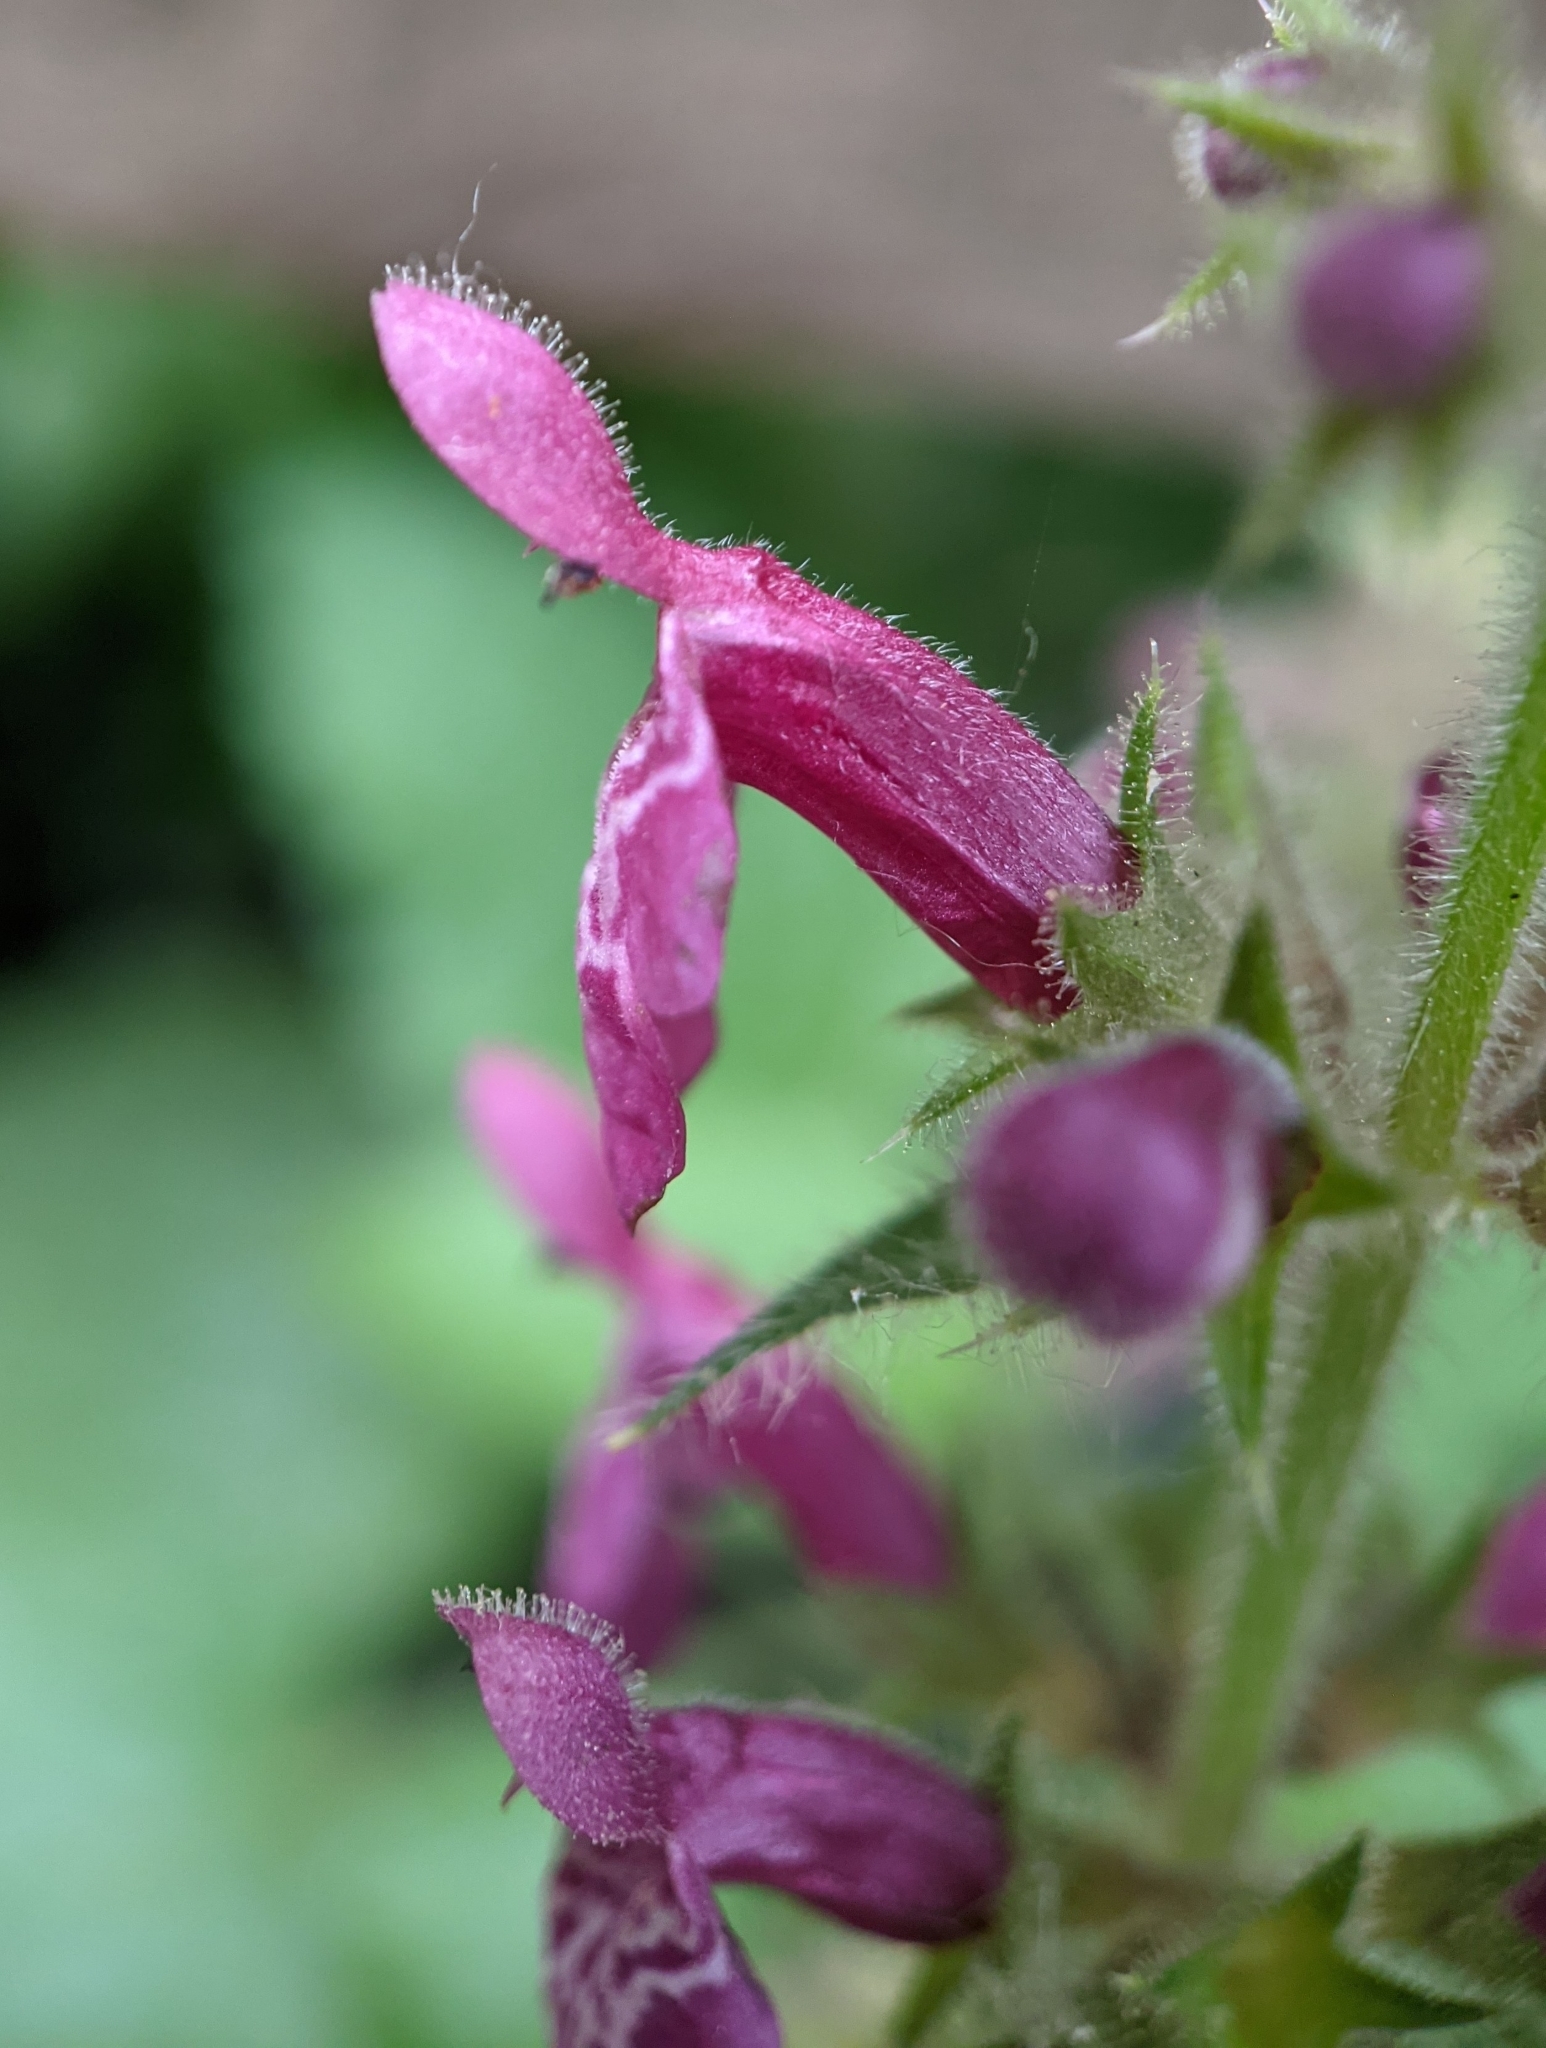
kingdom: Plantae
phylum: Tracheophyta
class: Magnoliopsida
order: Lamiales
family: Lamiaceae
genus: Stachys
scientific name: Stachys sylvatica
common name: Hedge woundwort
